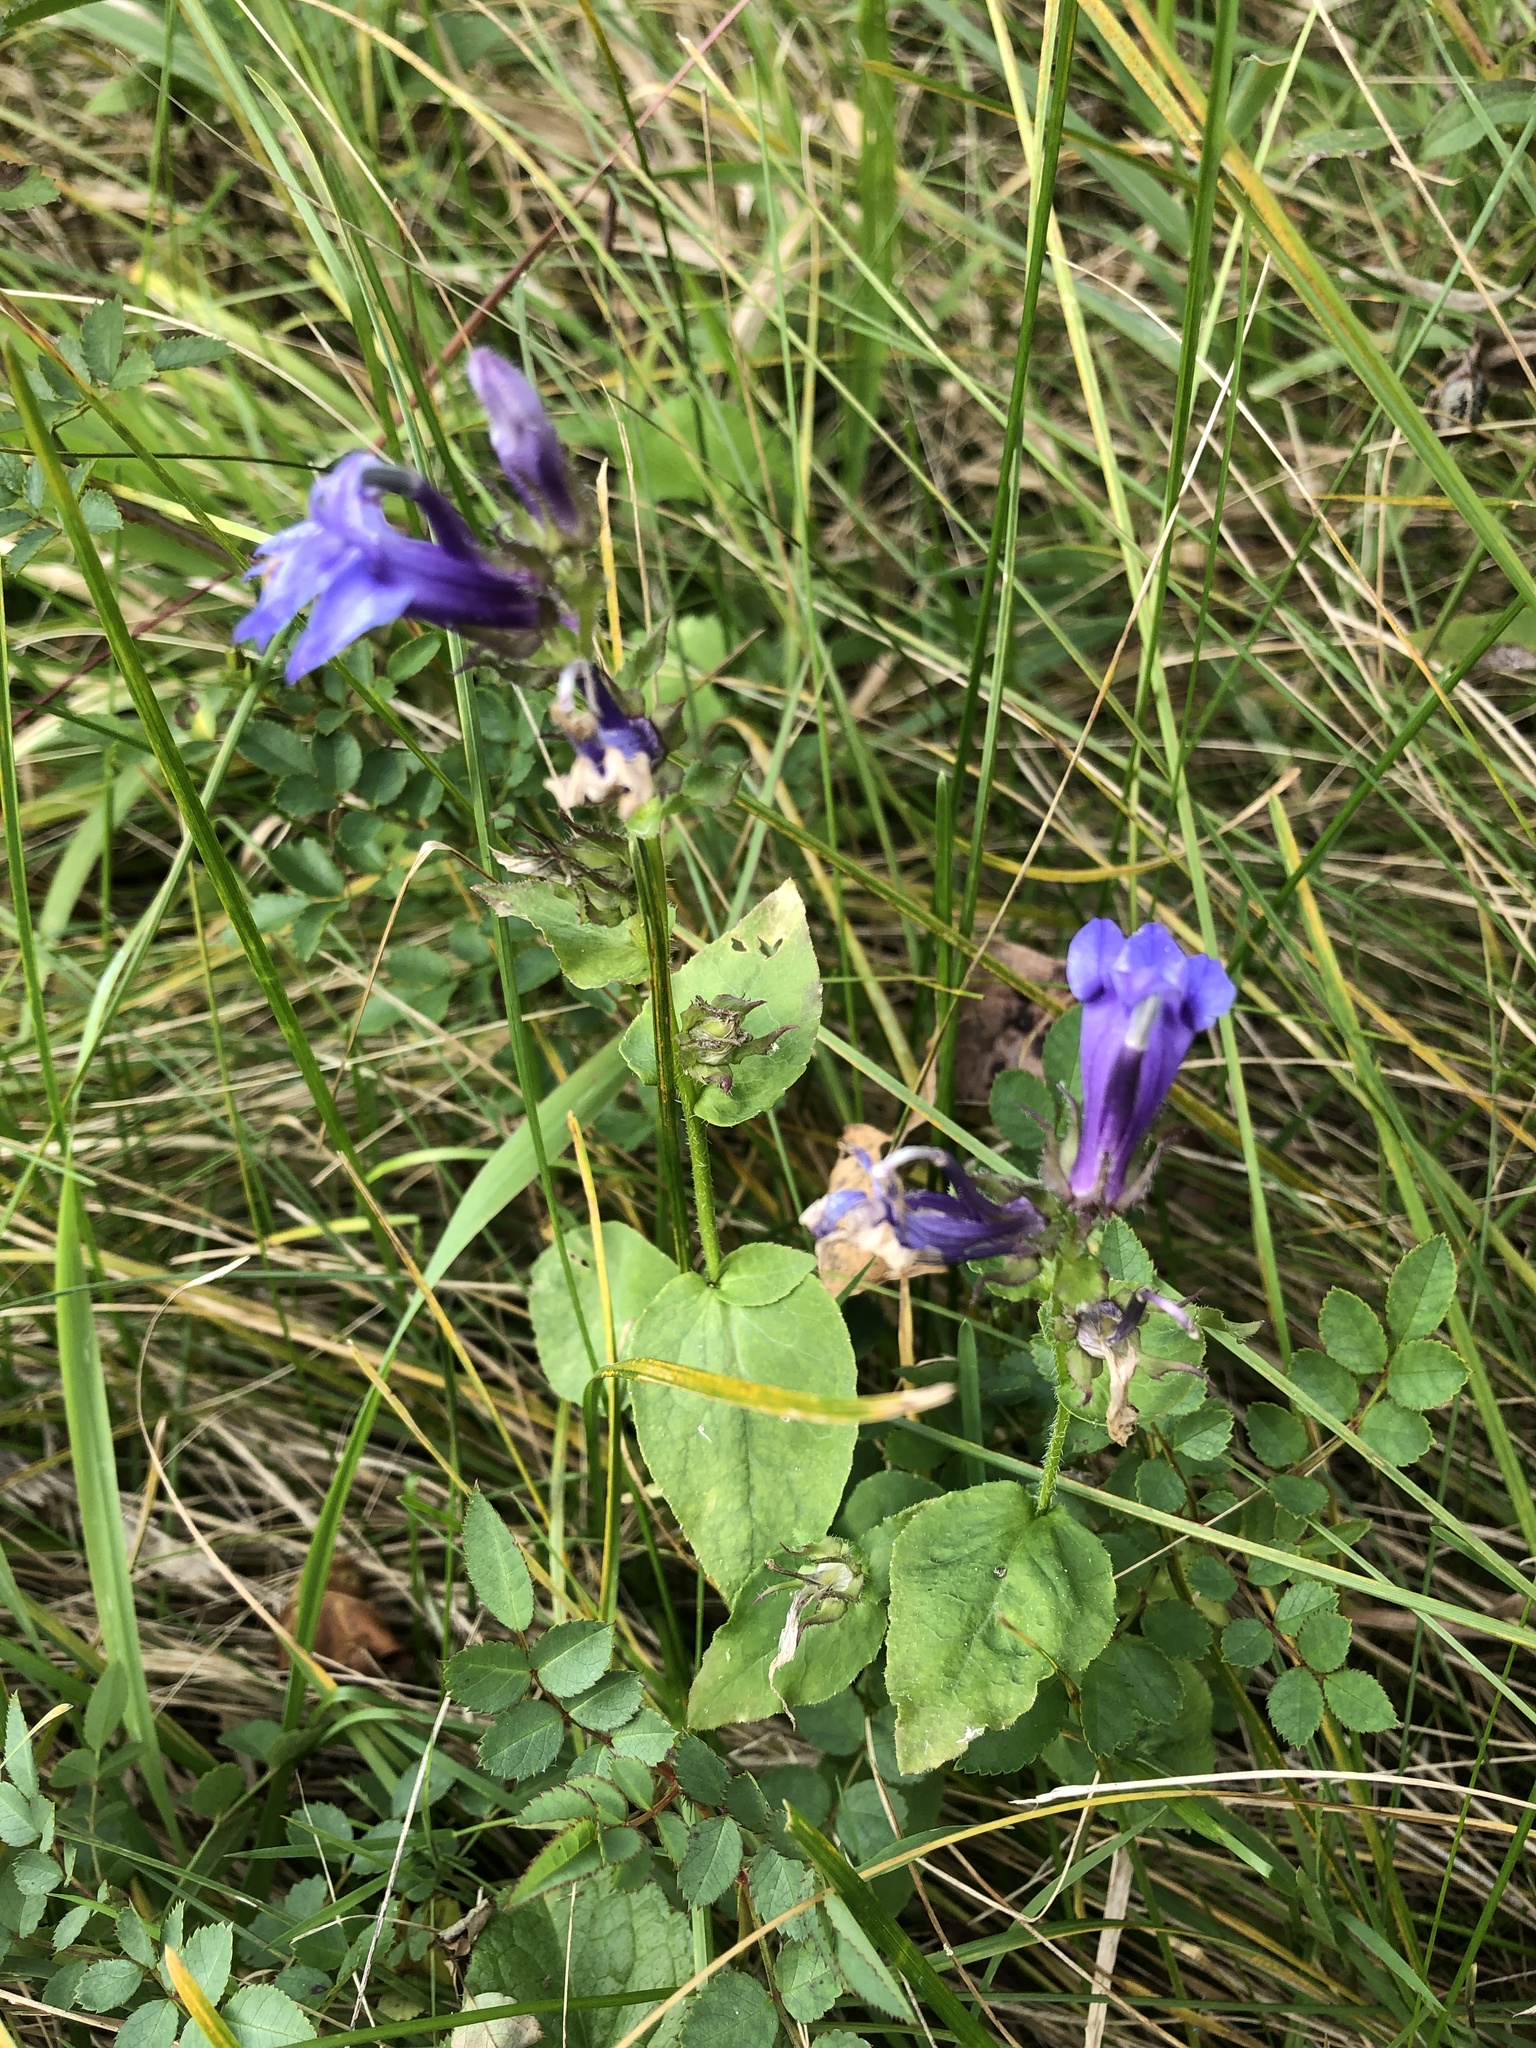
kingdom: Plantae
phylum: Tracheophyta
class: Magnoliopsida
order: Asterales
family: Campanulaceae
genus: Lobelia
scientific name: Lobelia siphilitica
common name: Great lobelia
